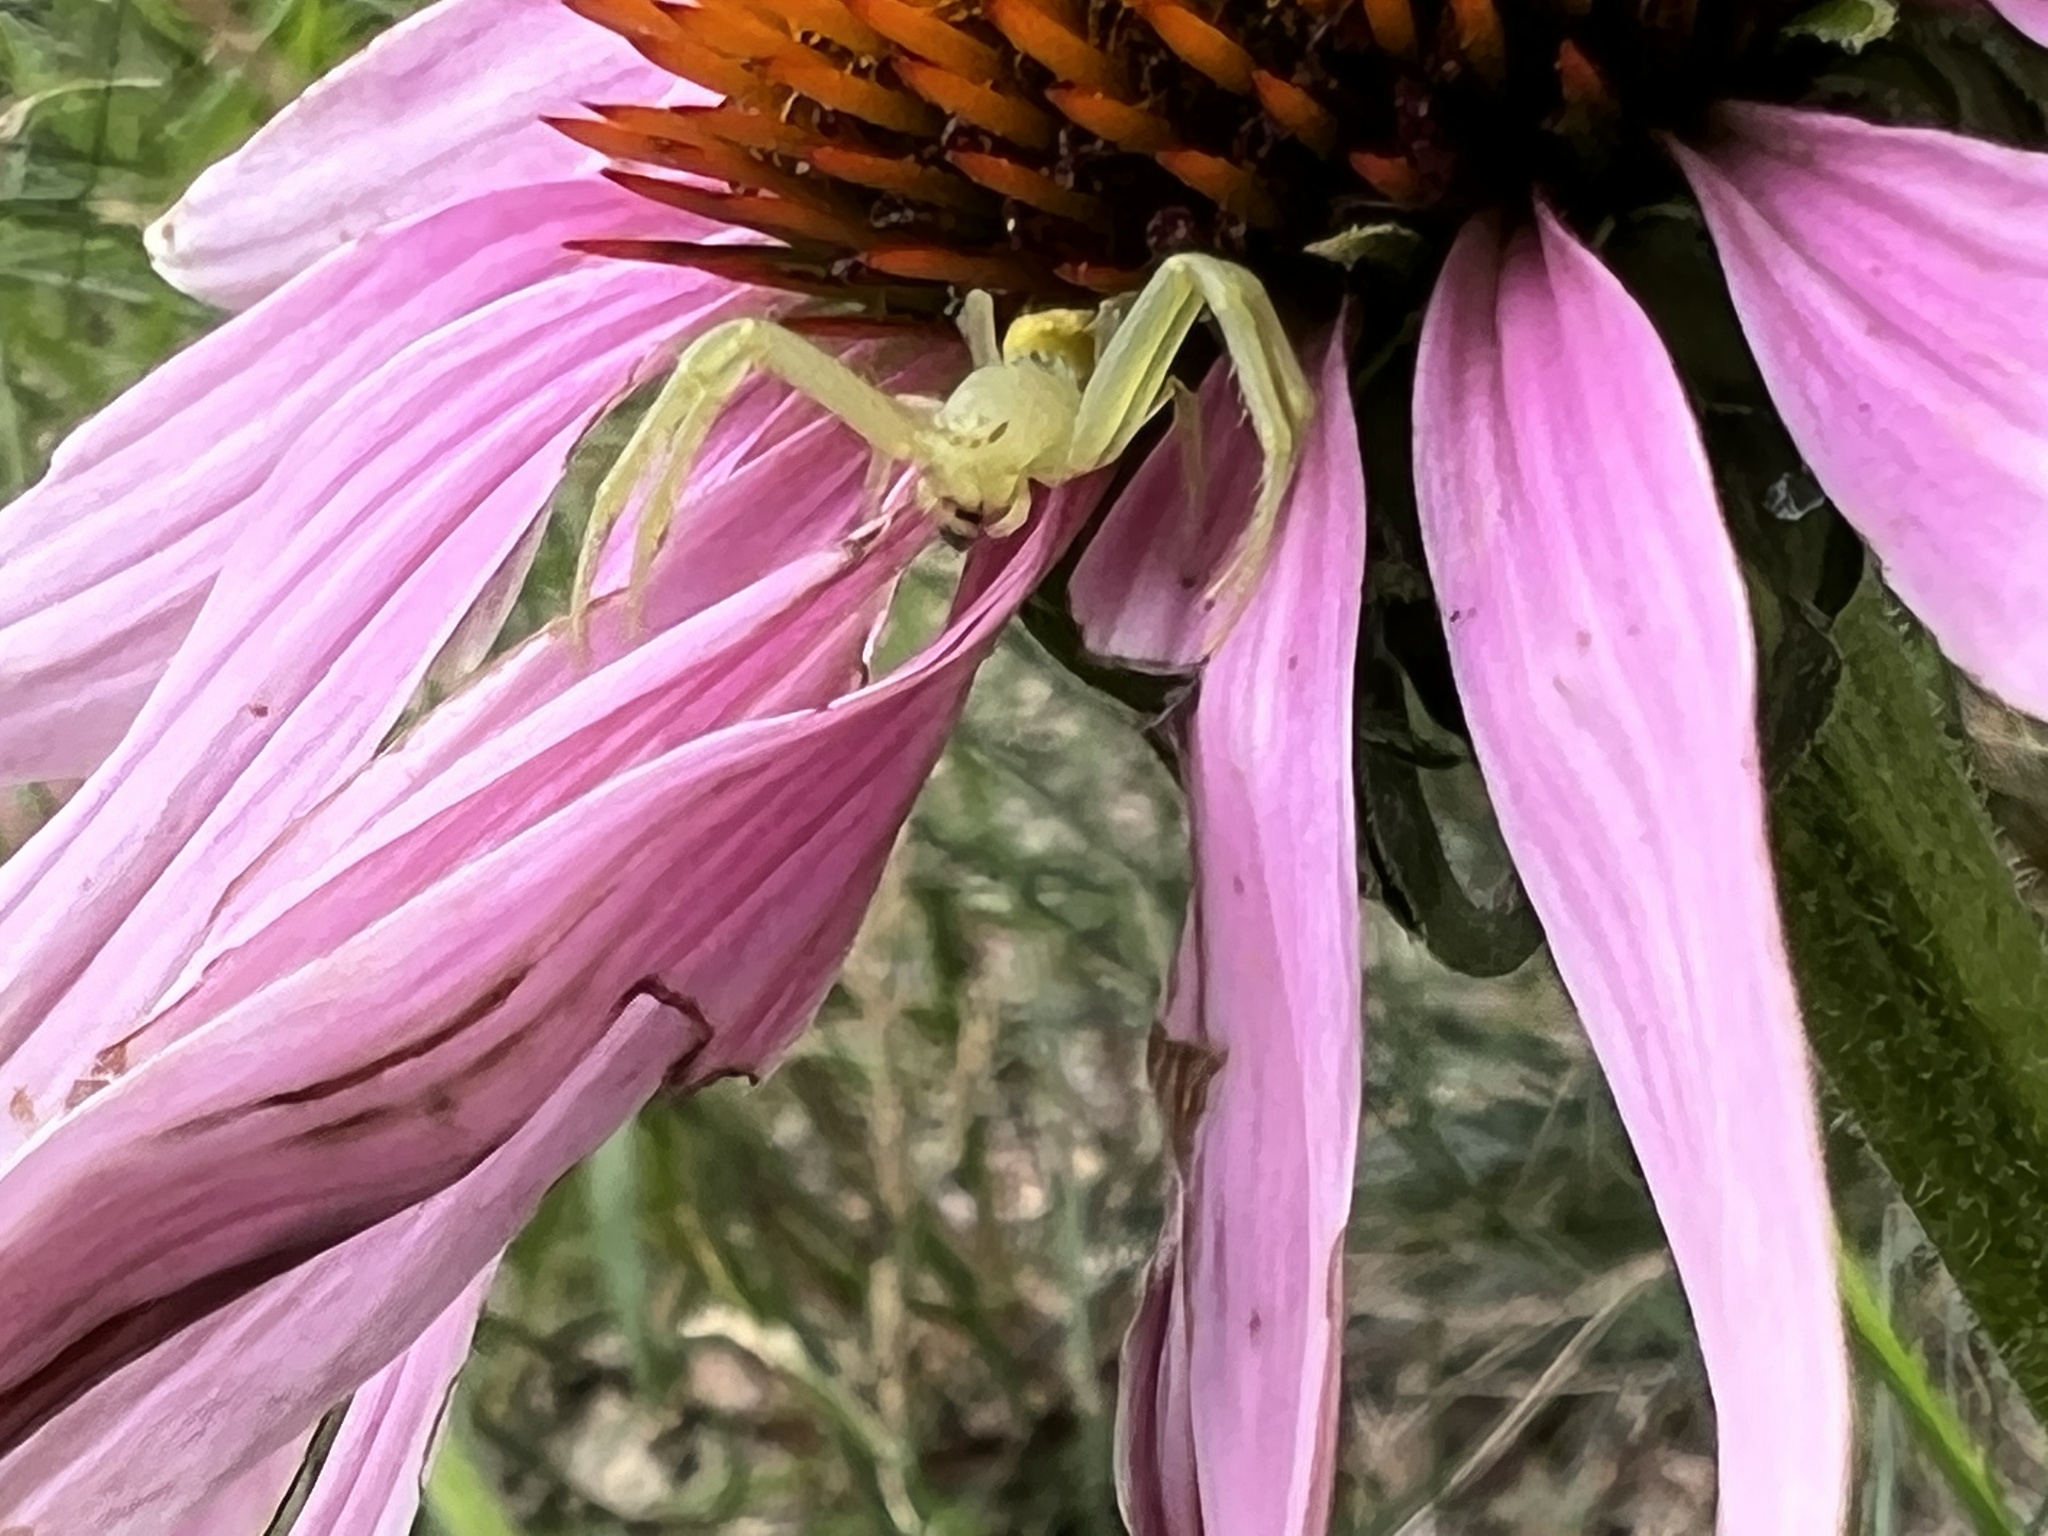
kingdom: Animalia
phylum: Arthropoda
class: Arachnida
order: Araneae
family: Thomisidae
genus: Misumessus
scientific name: Misumessus oblongus
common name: American green crab spider
